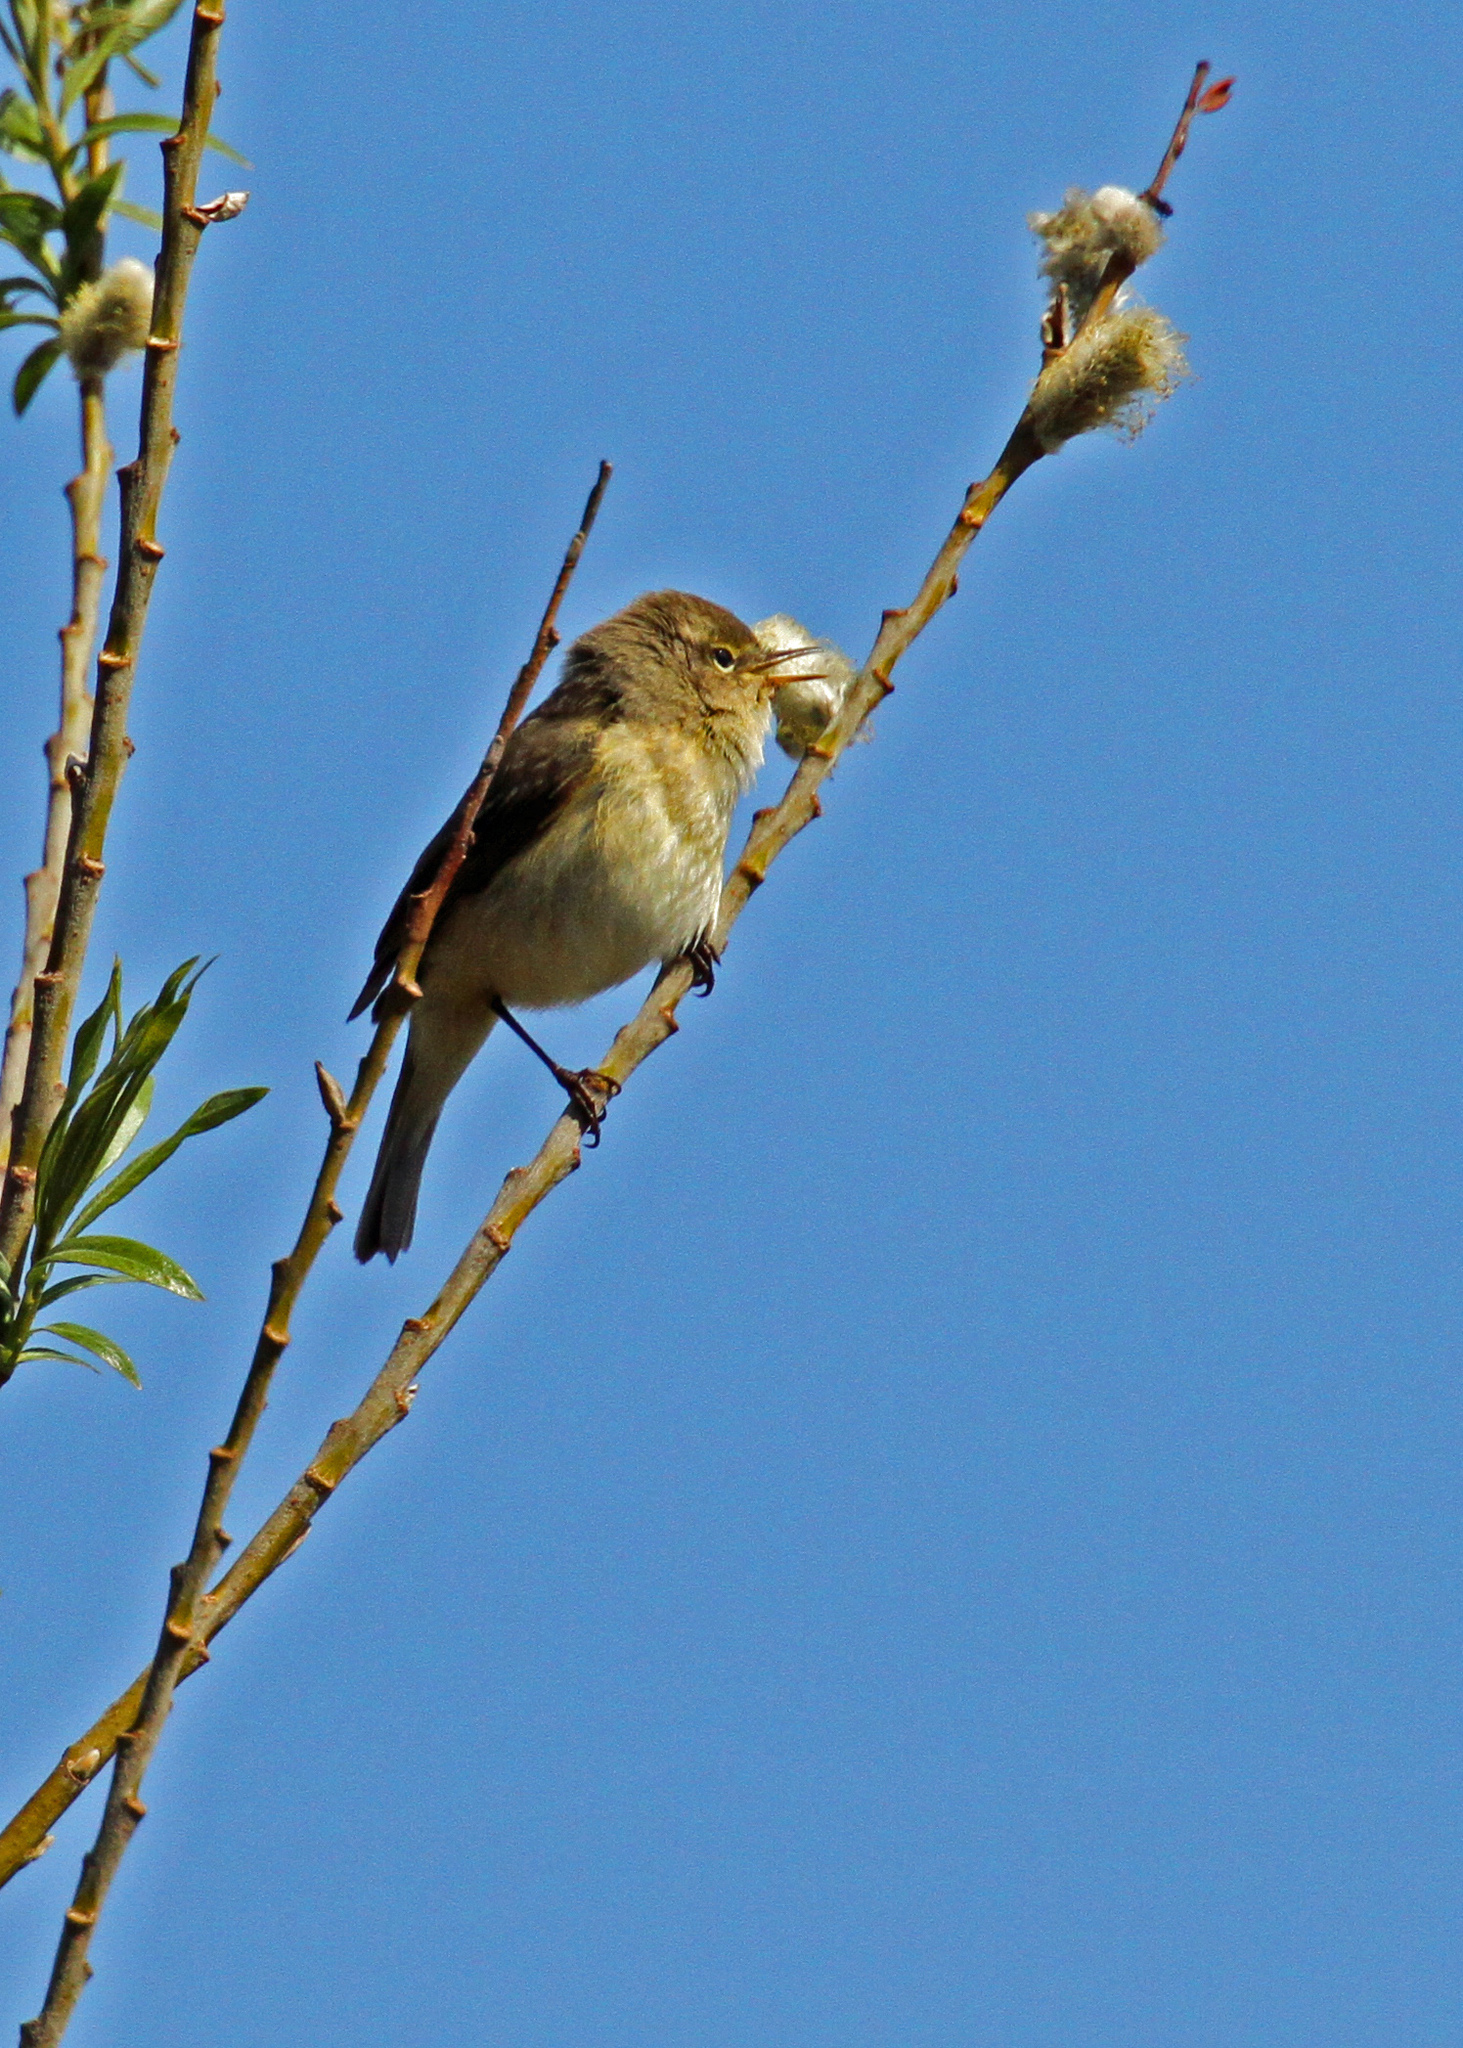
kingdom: Animalia
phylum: Chordata
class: Aves
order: Passeriformes
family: Phylloscopidae
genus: Phylloscopus
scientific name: Phylloscopus collybita
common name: Common chiffchaff
